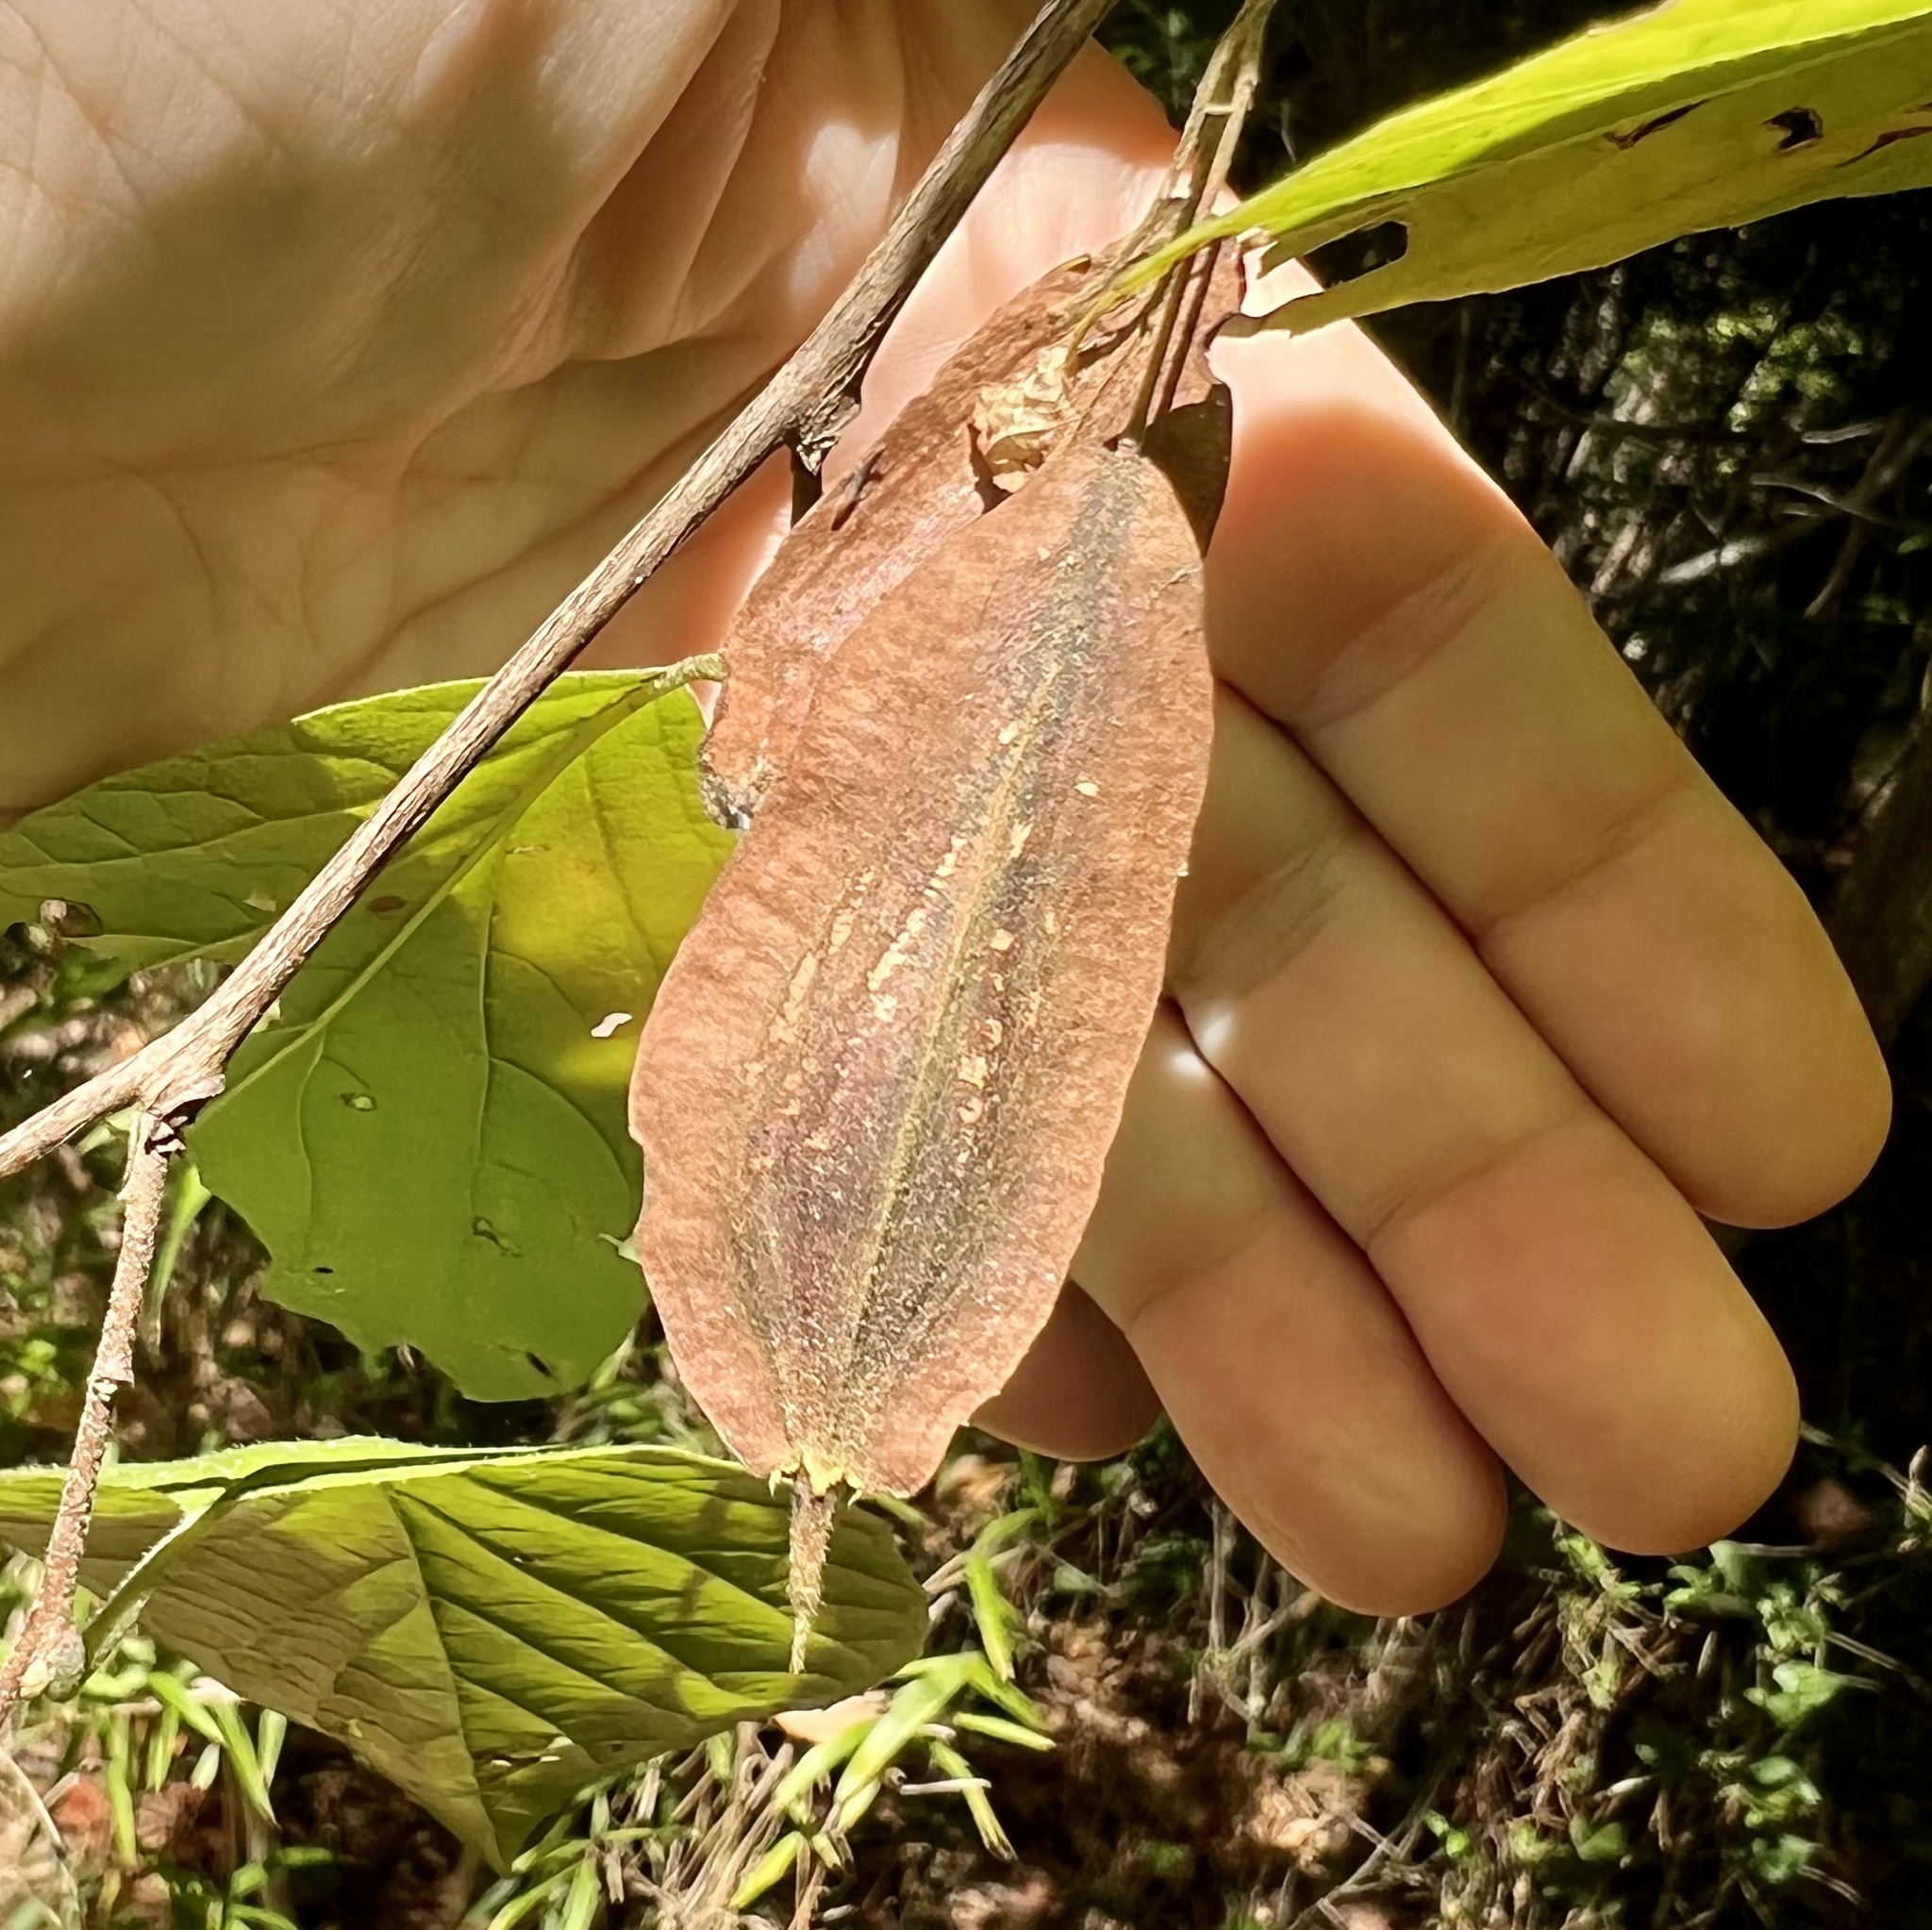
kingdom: Plantae
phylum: Tracheophyta
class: Magnoliopsida
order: Ericales
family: Styracaceae
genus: Halesia
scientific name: Halesia diptera
